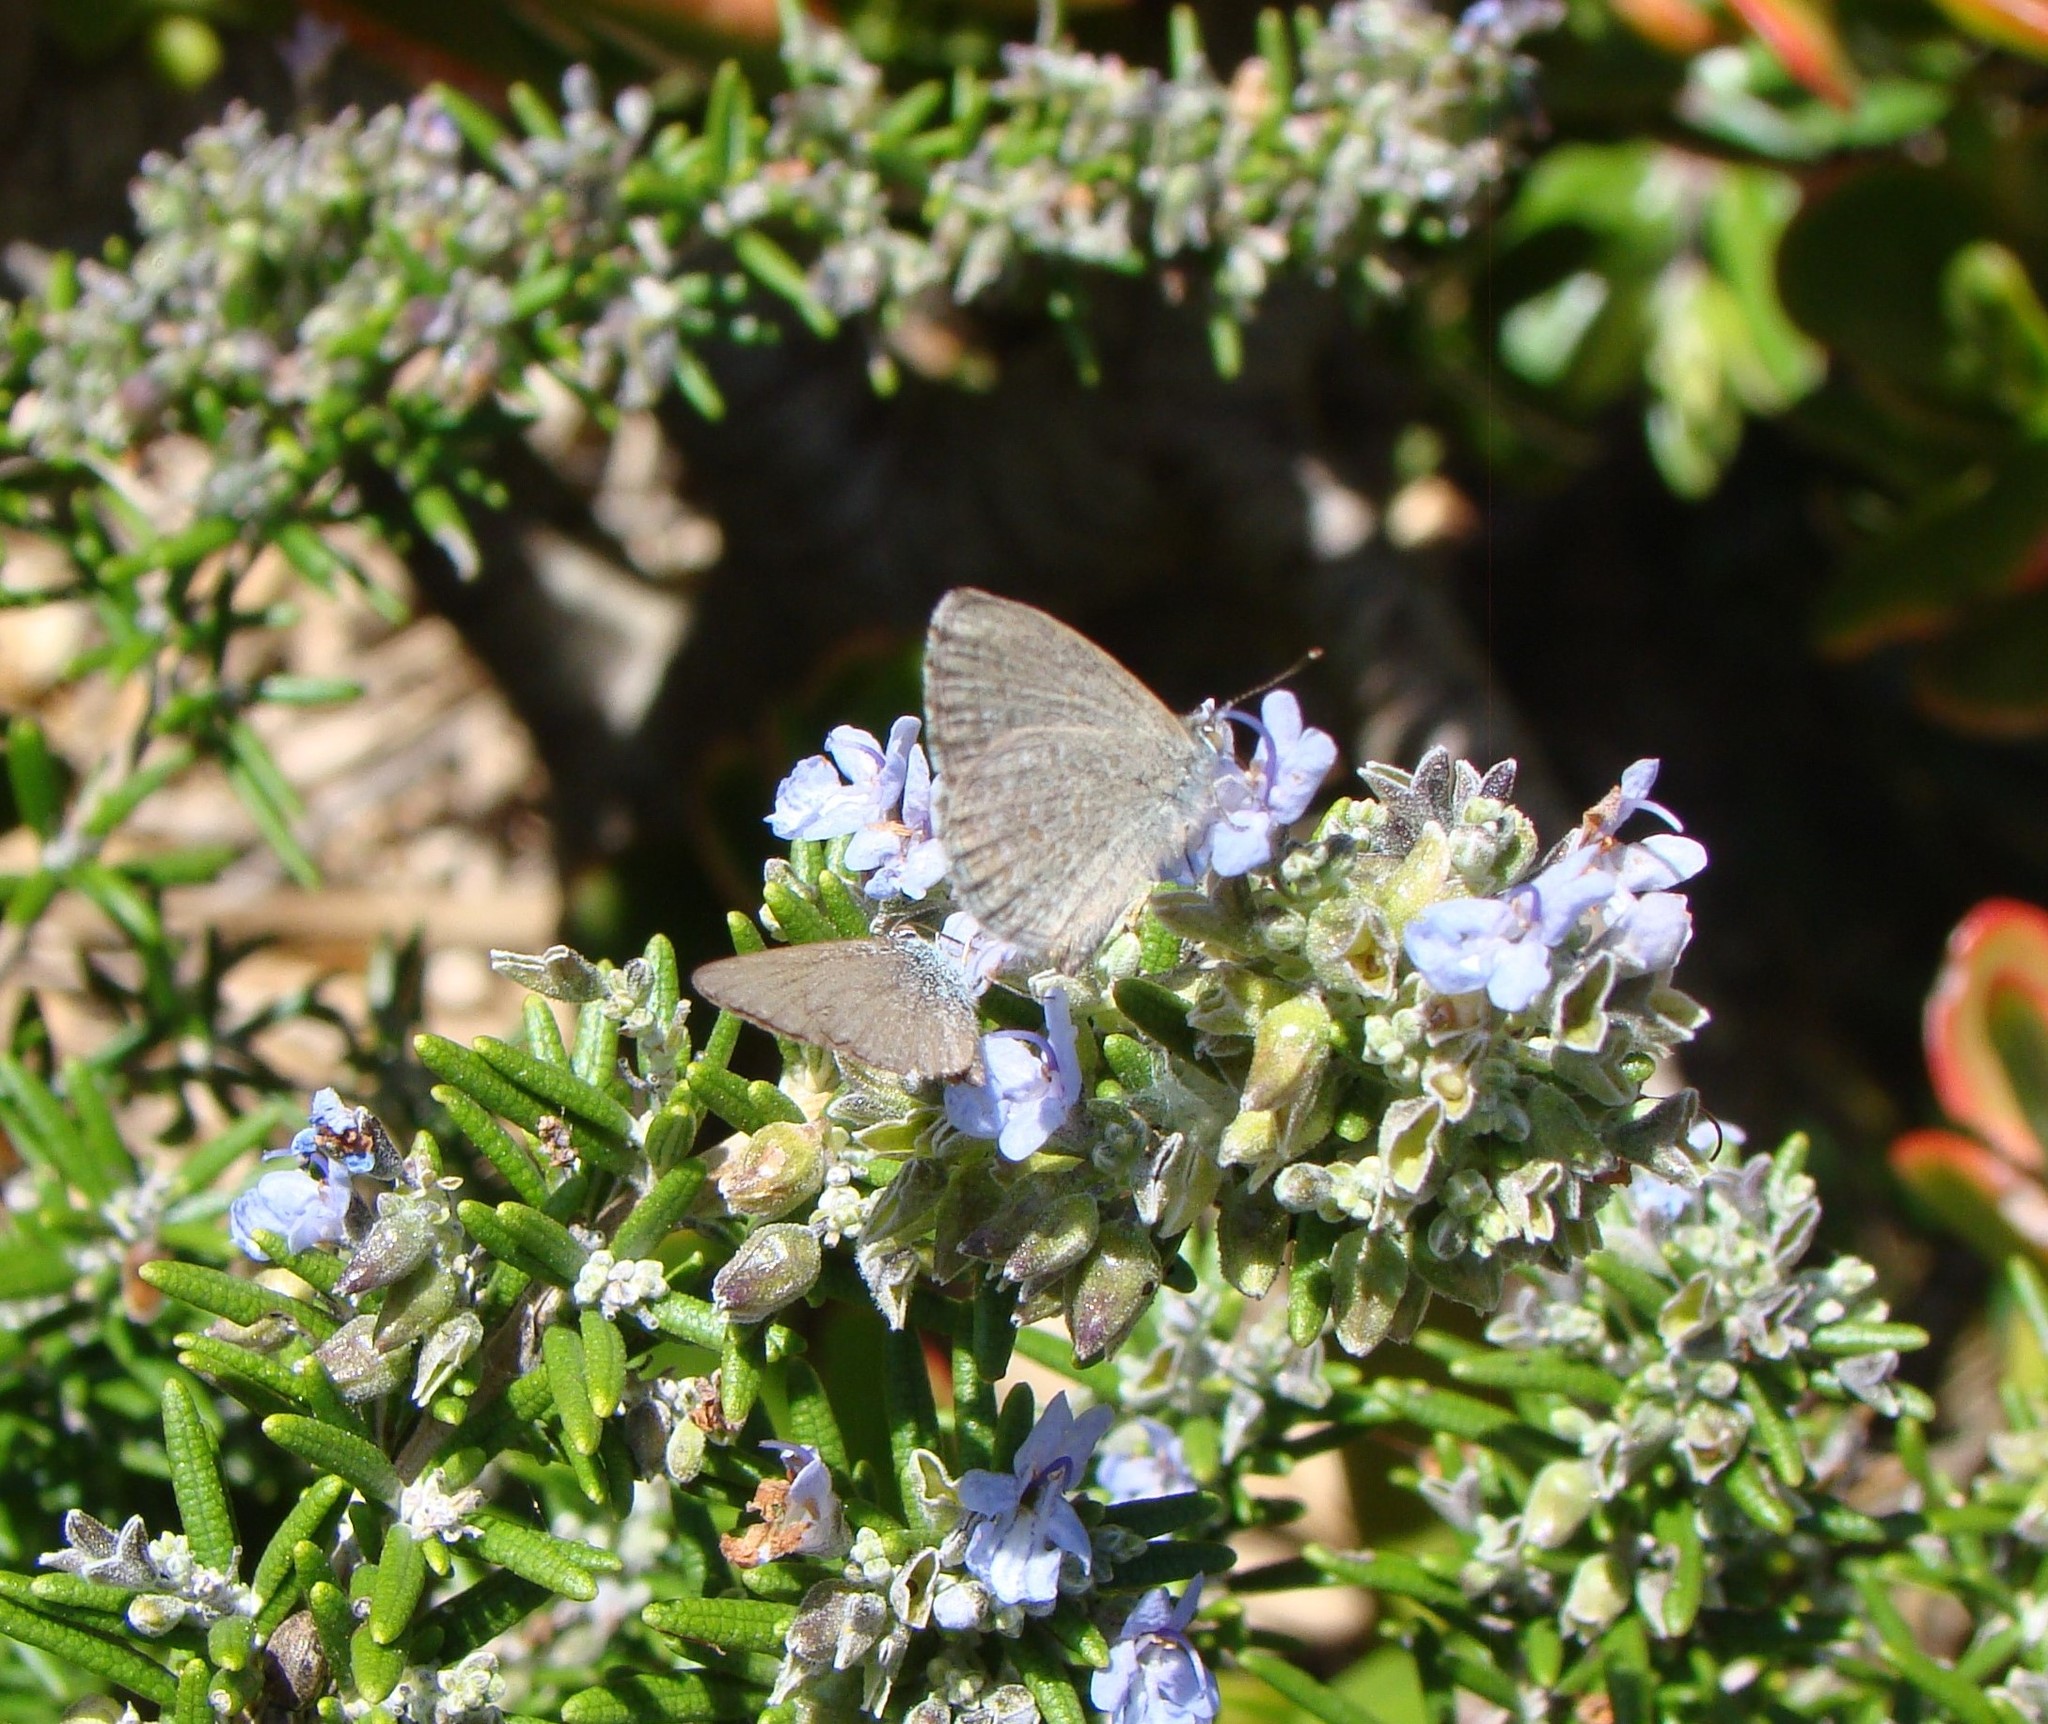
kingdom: Animalia
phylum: Arthropoda
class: Insecta
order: Lepidoptera
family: Lycaenidae
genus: Zizina
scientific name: Zizina labradus
